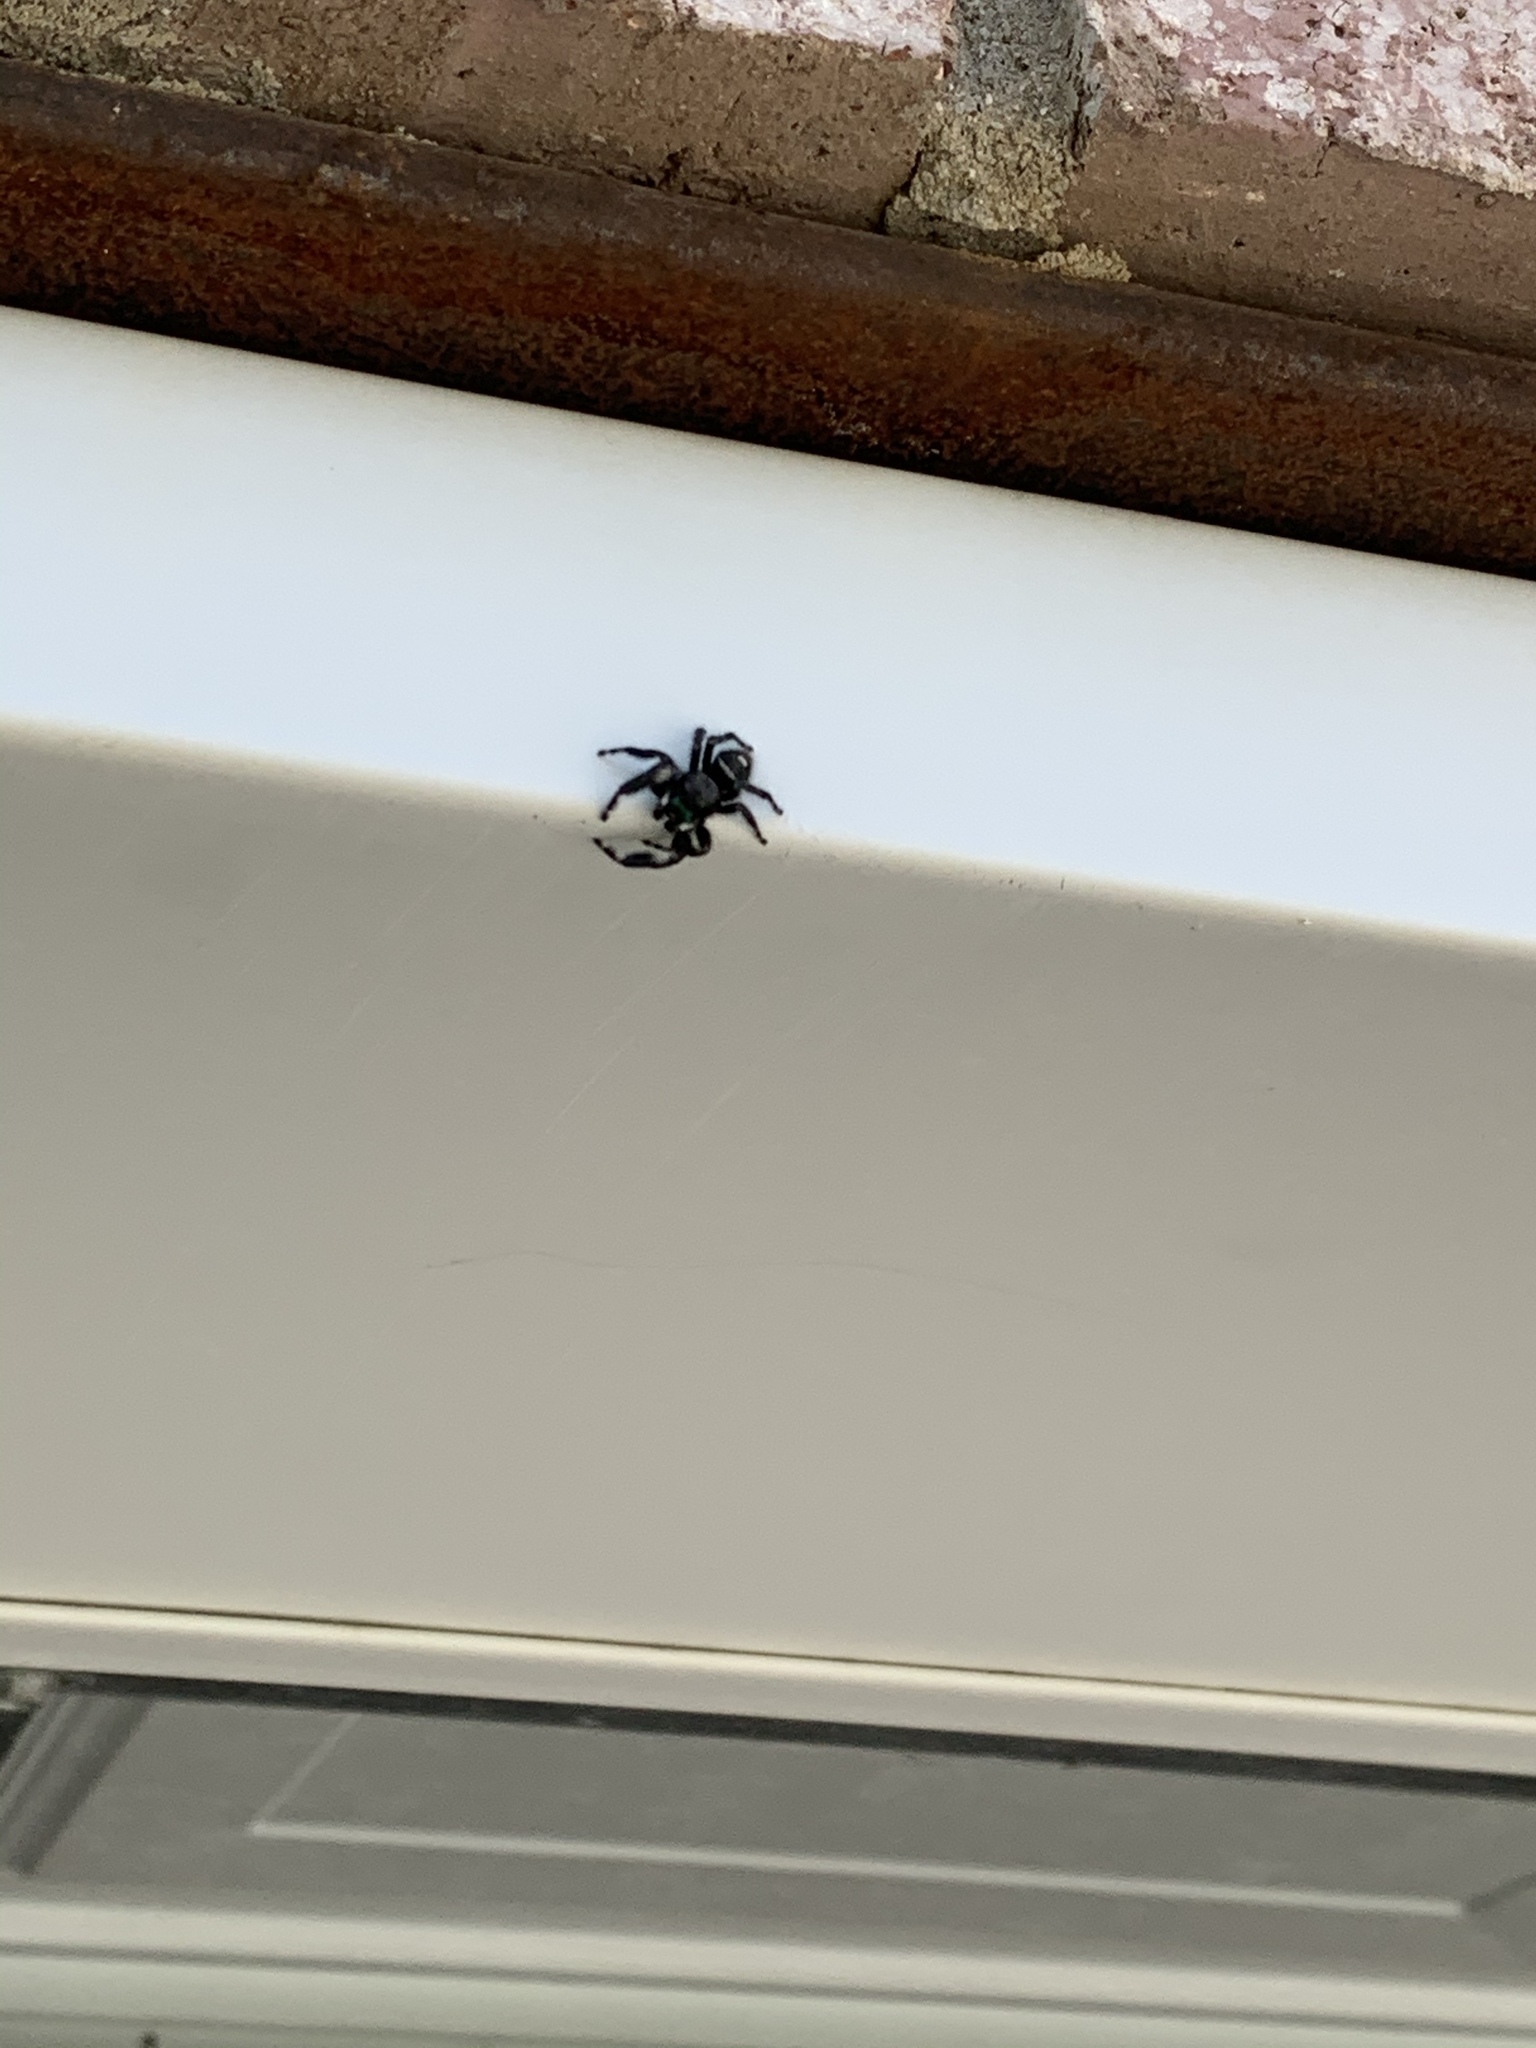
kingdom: Animalia
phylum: Arthropoda
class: Arachnida
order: Araneae
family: Salticidae
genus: Phidippus
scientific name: Phidippus audax
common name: Bold jumper
